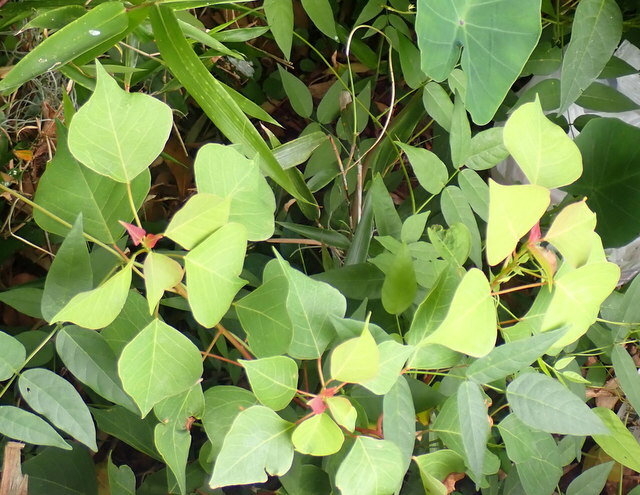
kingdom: Plantae
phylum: Tracheophyta
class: Magnoliopsida
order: Malpighiales
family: Euphorbiaceae
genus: Triadica
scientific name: Triadica sebifera
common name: Chinese tallow
